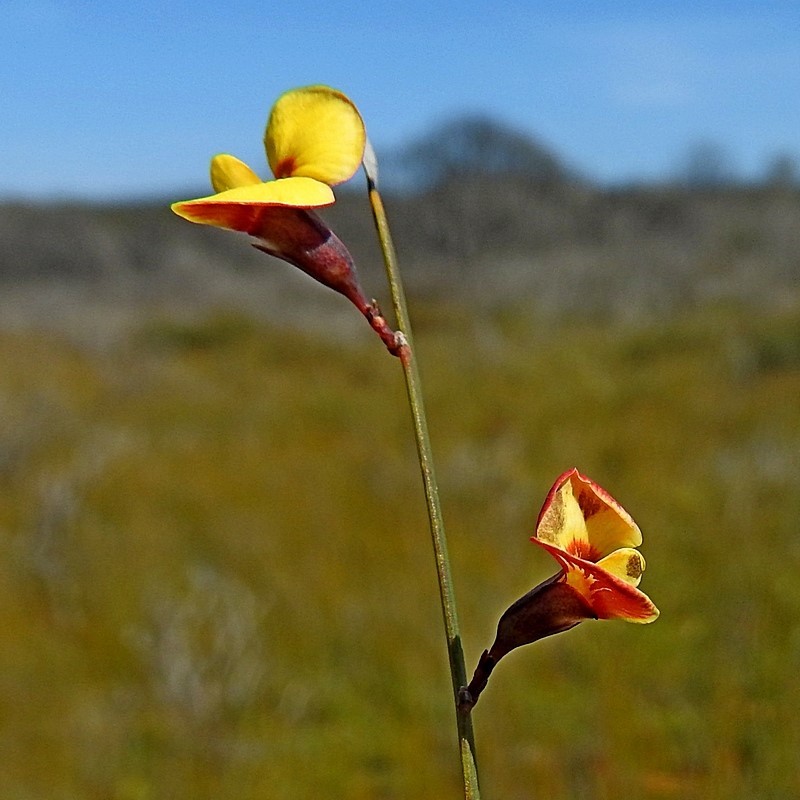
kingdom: Plantae
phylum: Tracheophyta
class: Magnoliopsida
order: Fabales
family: Fabaceae
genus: Bossiaea
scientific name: Bossiaea ensata
